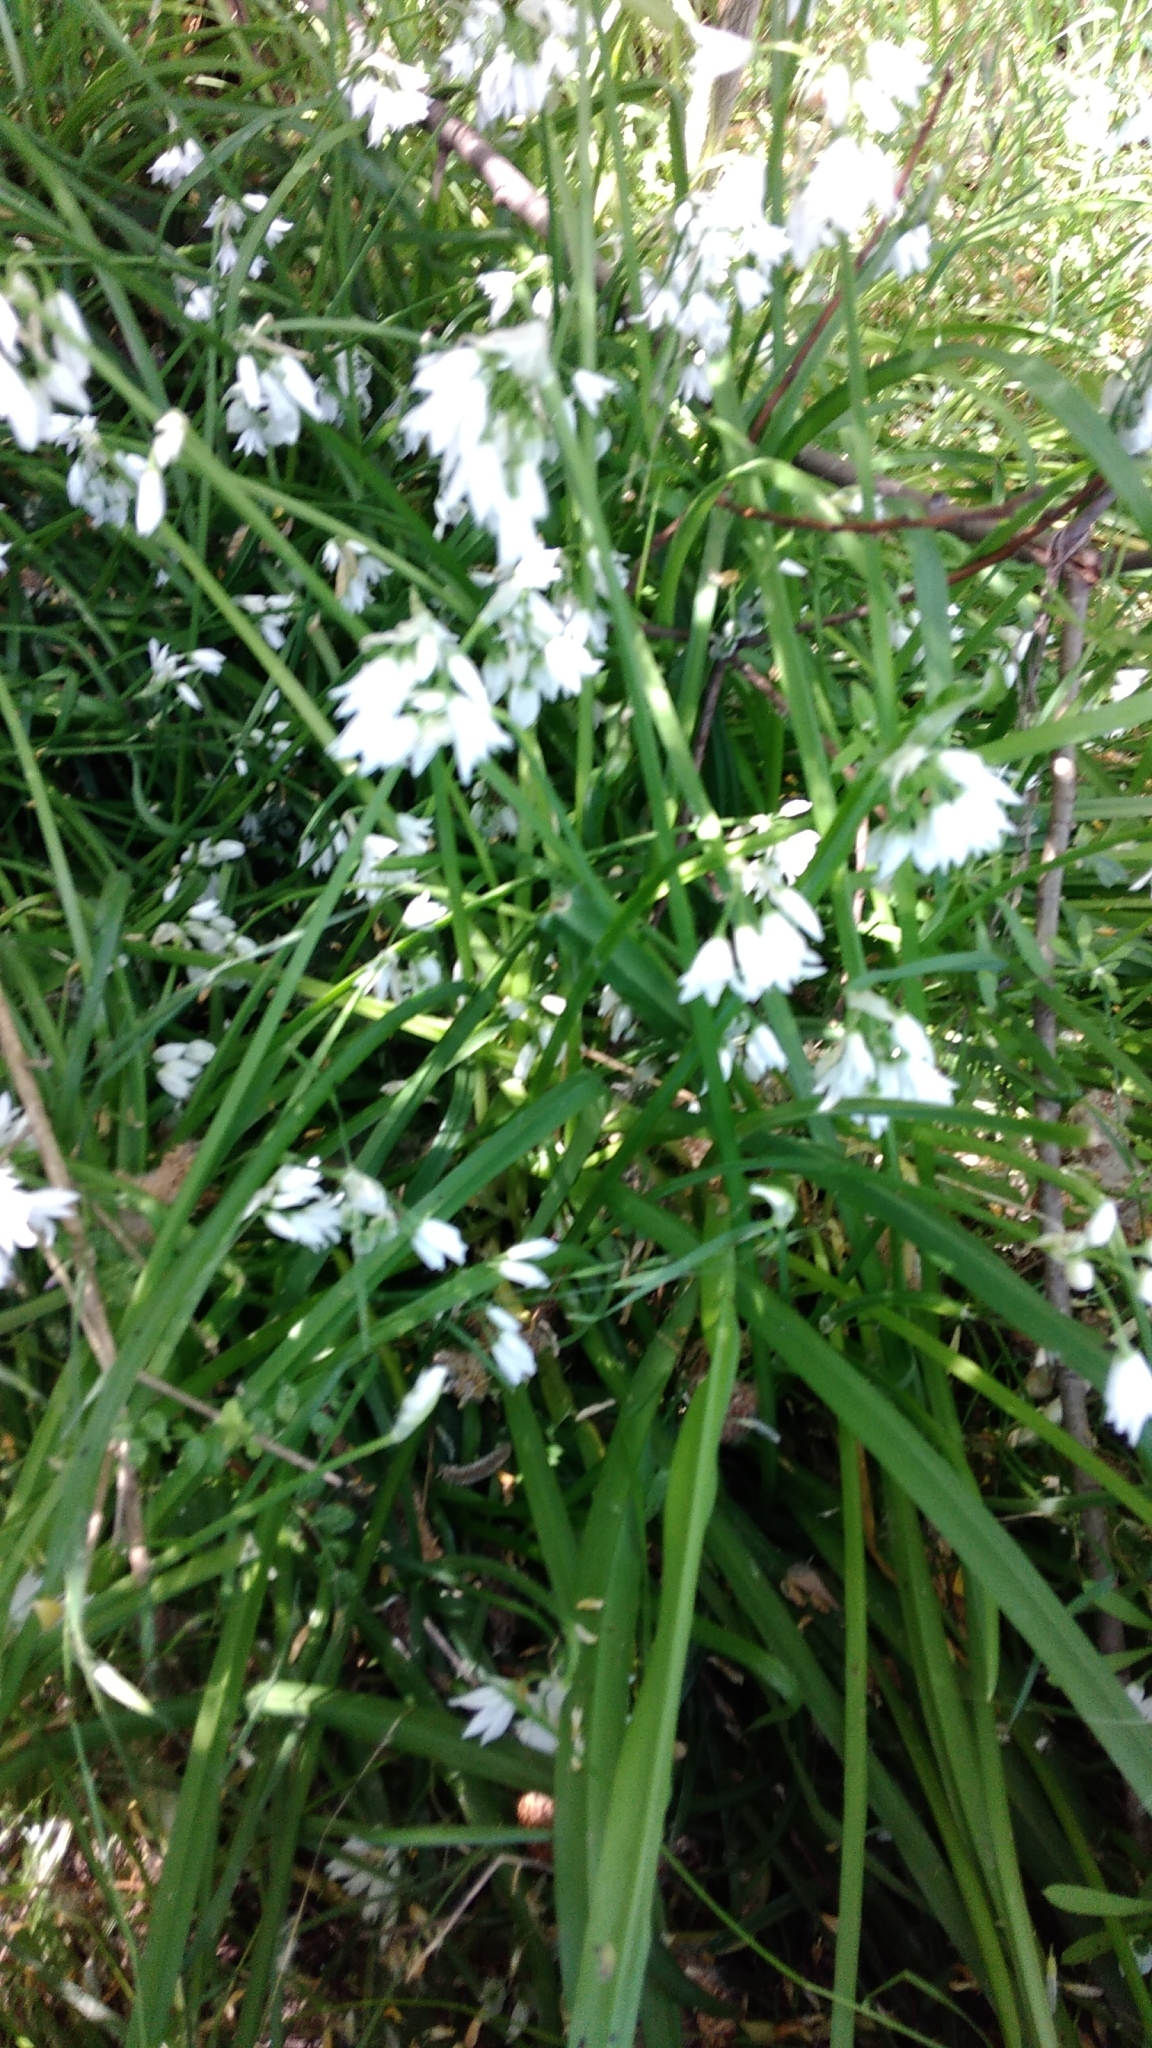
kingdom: Plantae
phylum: Tracheophyta
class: Liliopsida
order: Asparagales
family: Amaryllidaceae
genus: Allium
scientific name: Allium triquetrum
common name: Three-cornered garlic
